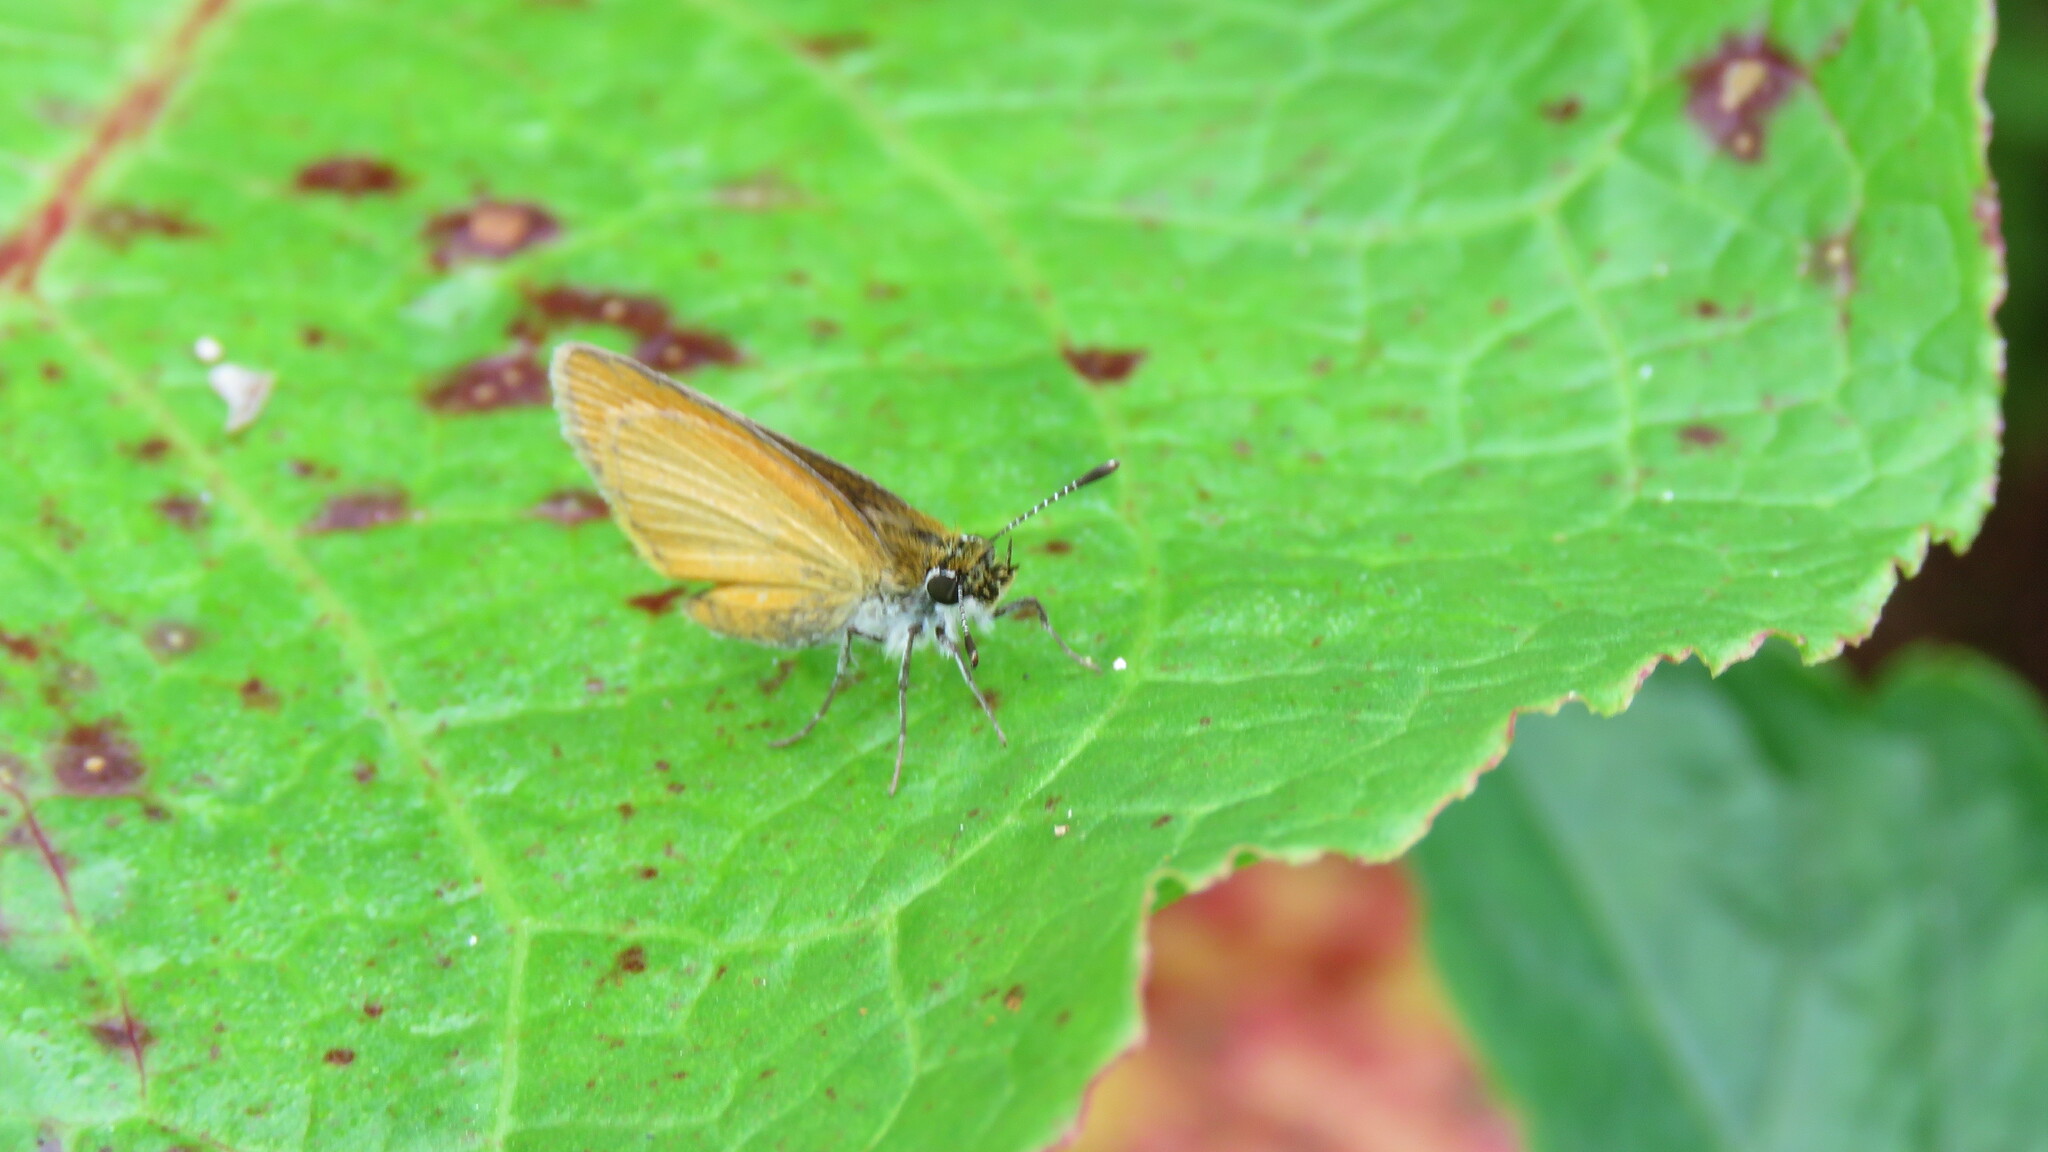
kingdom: Animalia
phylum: Arthropoda
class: Insecta
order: Lepidoptera
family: Hesperiidae
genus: Ancyloxypha
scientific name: Ancyloxypha numitor
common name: Least skipper
